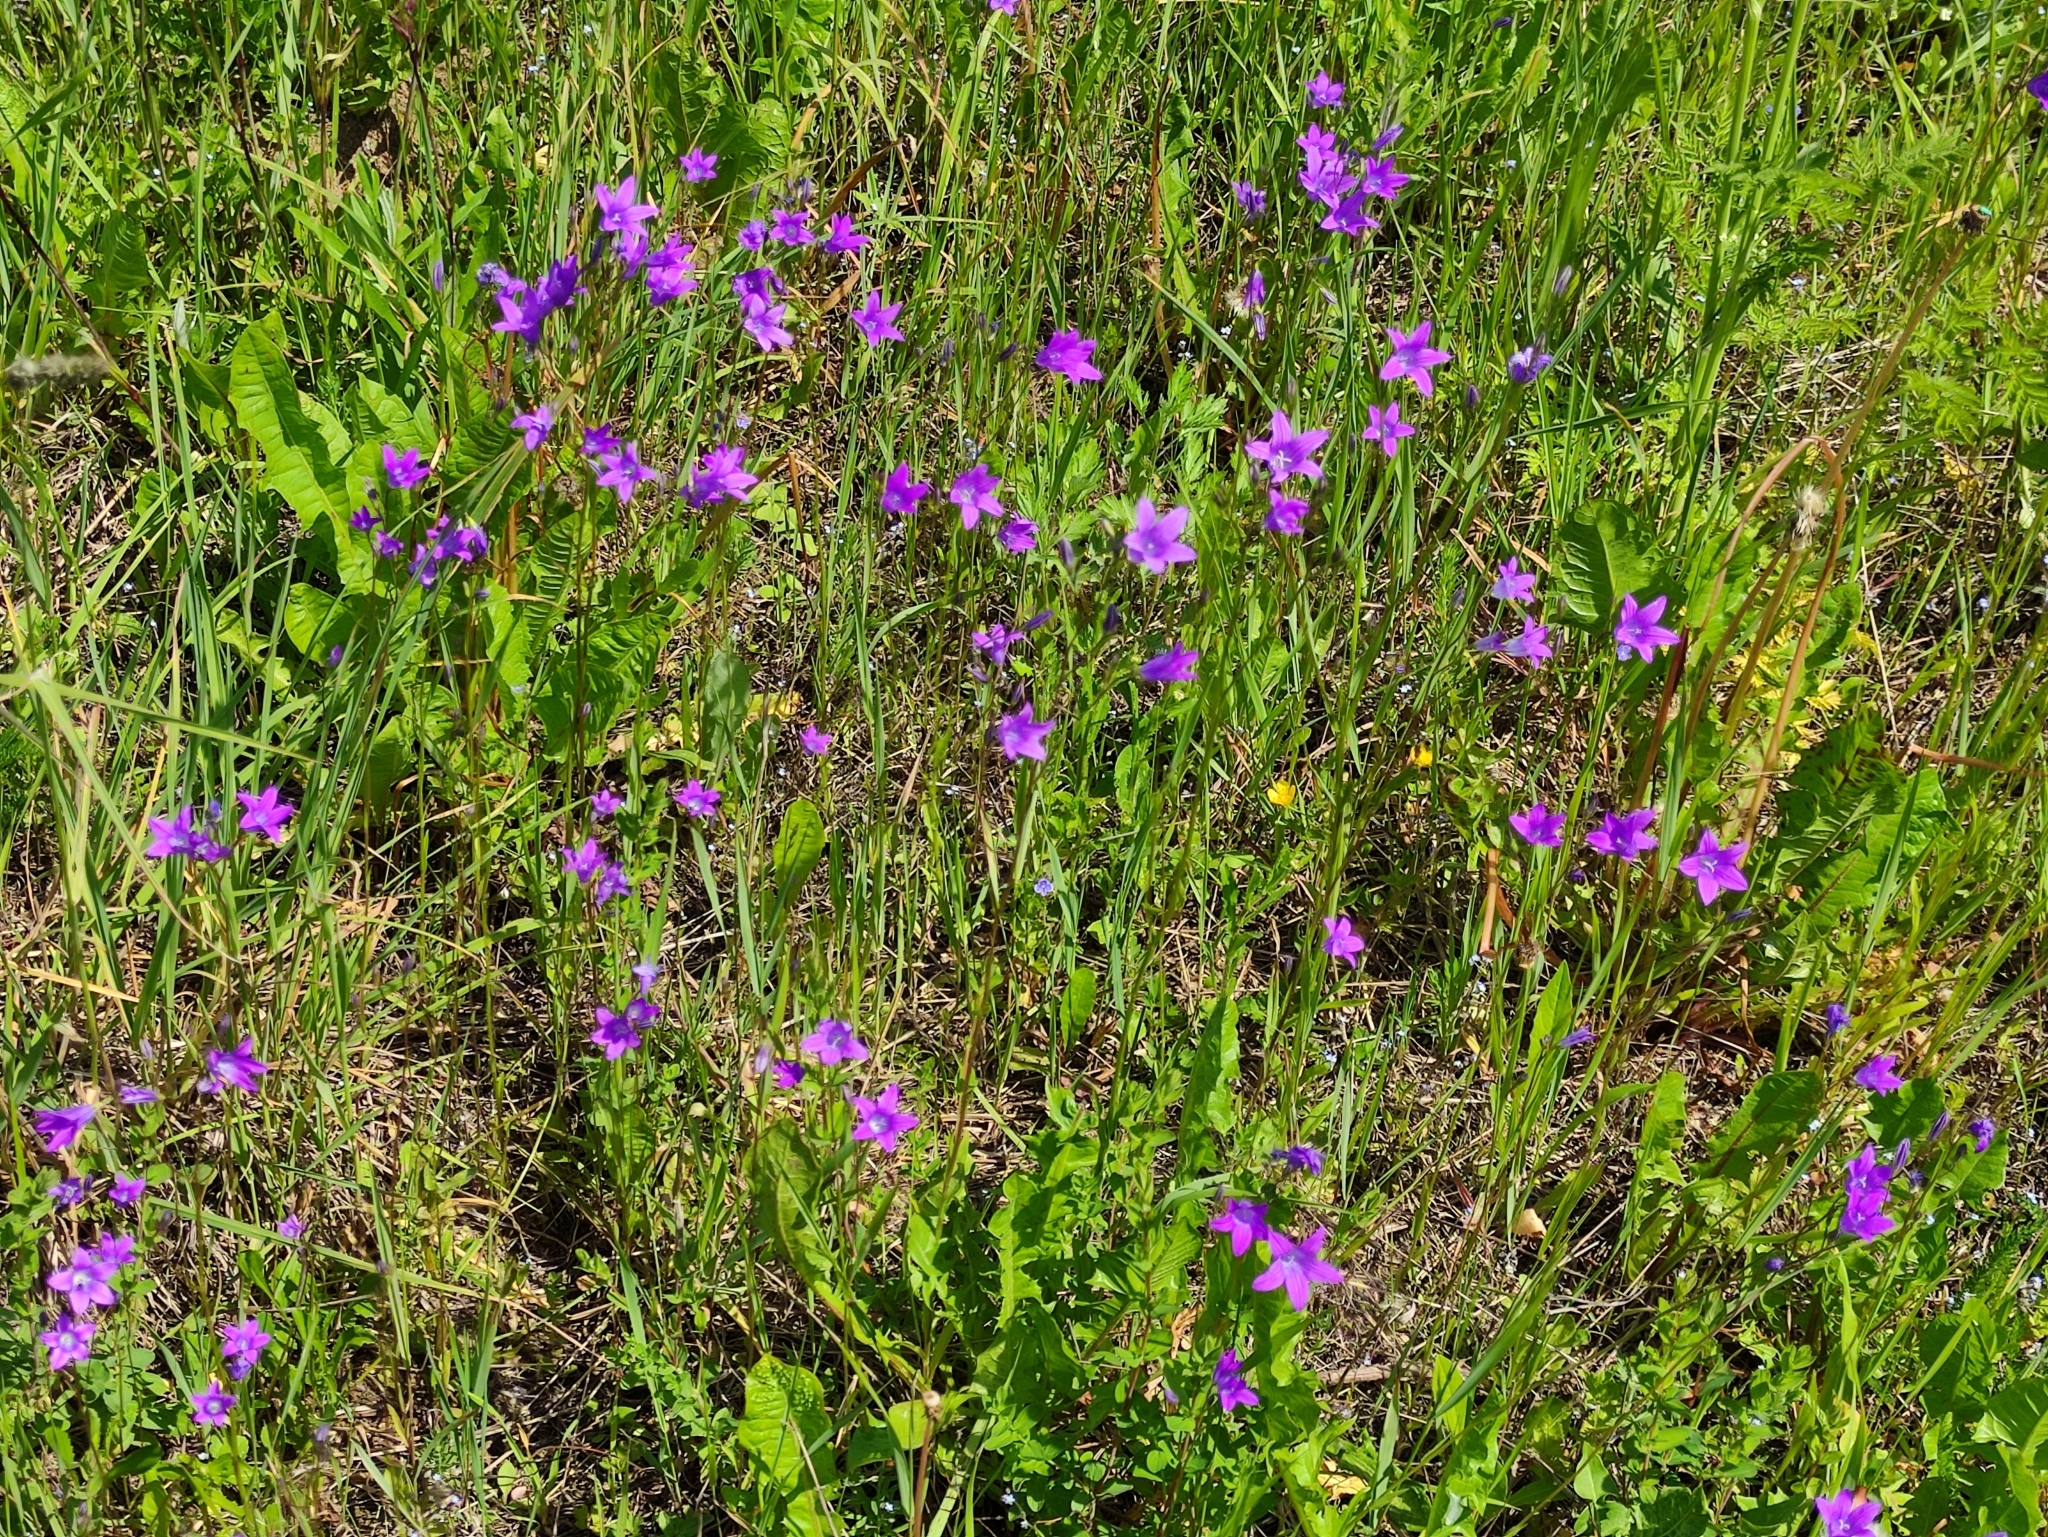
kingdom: Plantae
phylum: Tracheophyta
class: Magnoliopsida
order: Asterales
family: Campanulaceae
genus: Campanula
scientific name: Campanula patula
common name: Spreading bellflower
